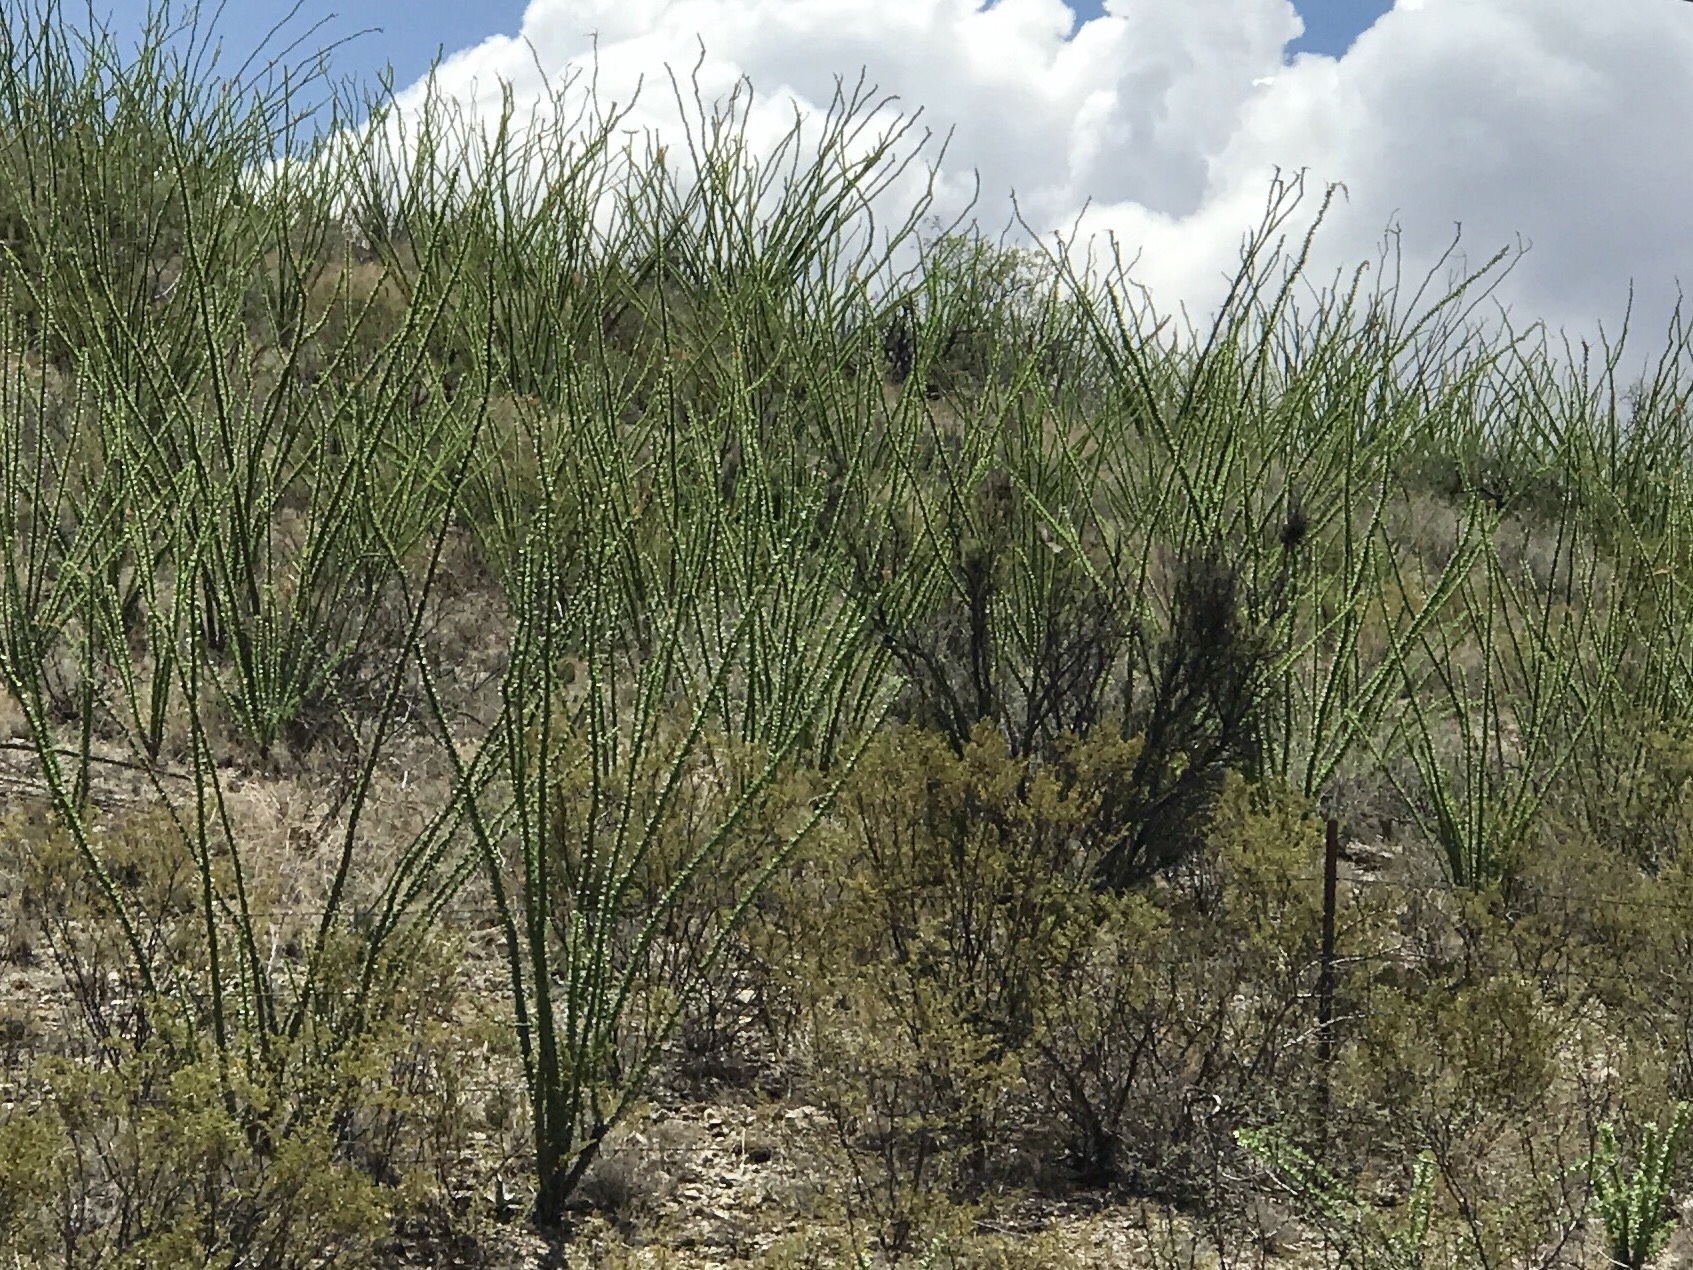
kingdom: Plantae
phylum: Tracheophyta
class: Magnoliopsida
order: Ericales
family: Fouquieriaceae
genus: Fouquieria
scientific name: Fouquieria splendens
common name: Vine-cactus
